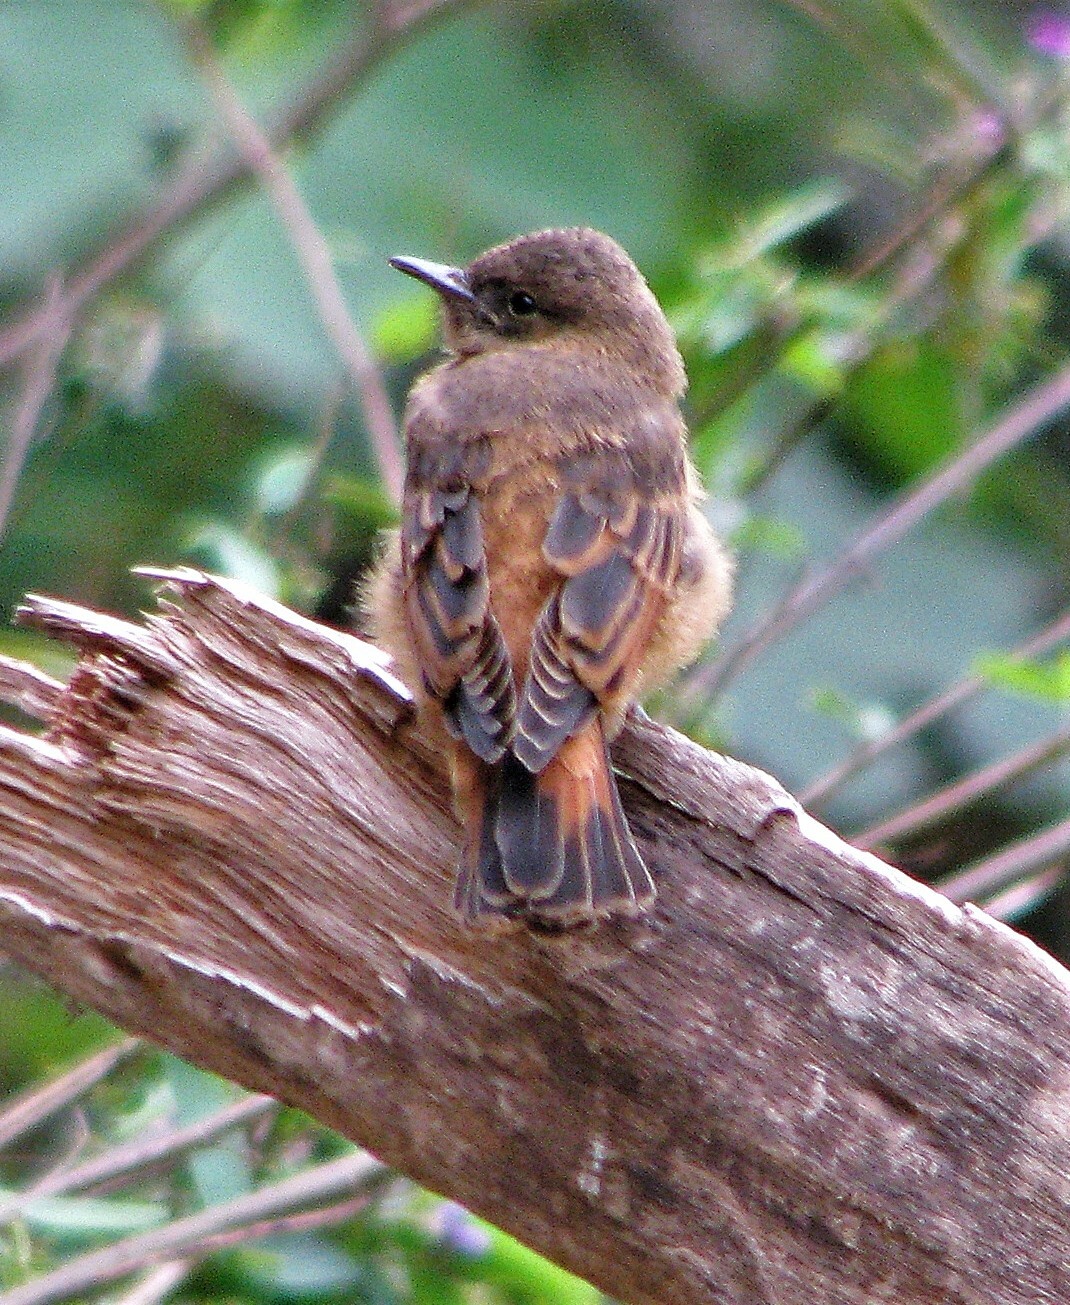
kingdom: Animalia
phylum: Chordata
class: Aves
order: Passeriformes
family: Tyrannidae
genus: Hirundinea
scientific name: Hirundinea ferruginea
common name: Cliff flycatcher
